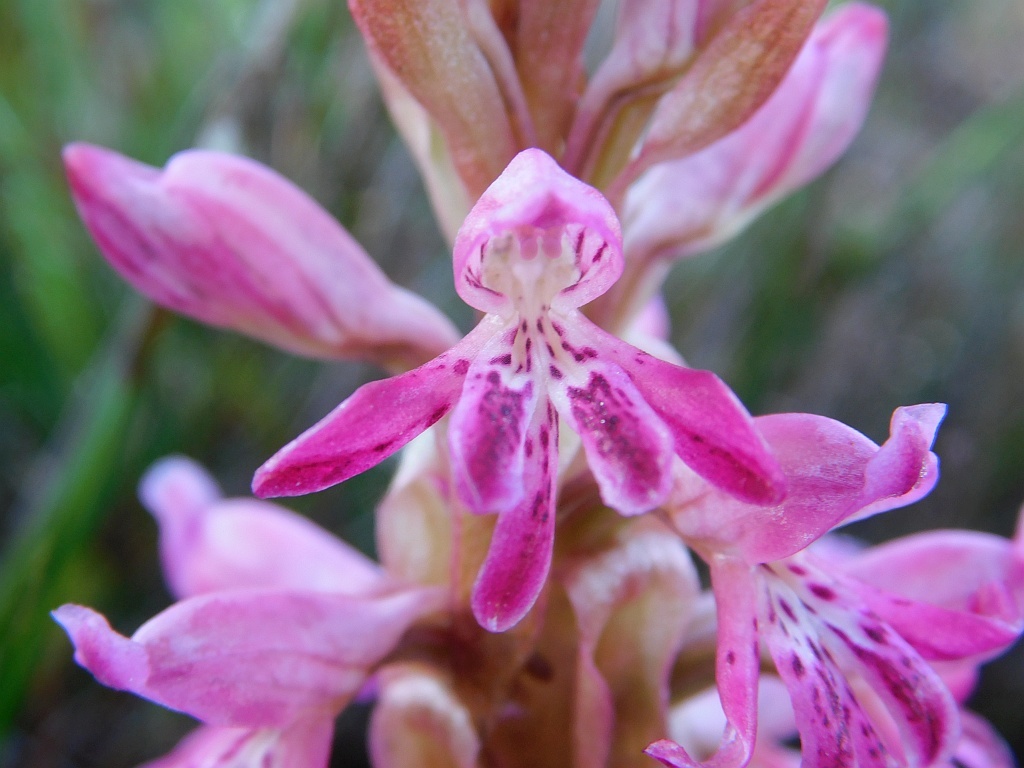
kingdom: Plantae
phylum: Tracheophyta
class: Liliopsida
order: Asparagales
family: Orchidaceae
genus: Satyrium
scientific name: Satyrium erectum
